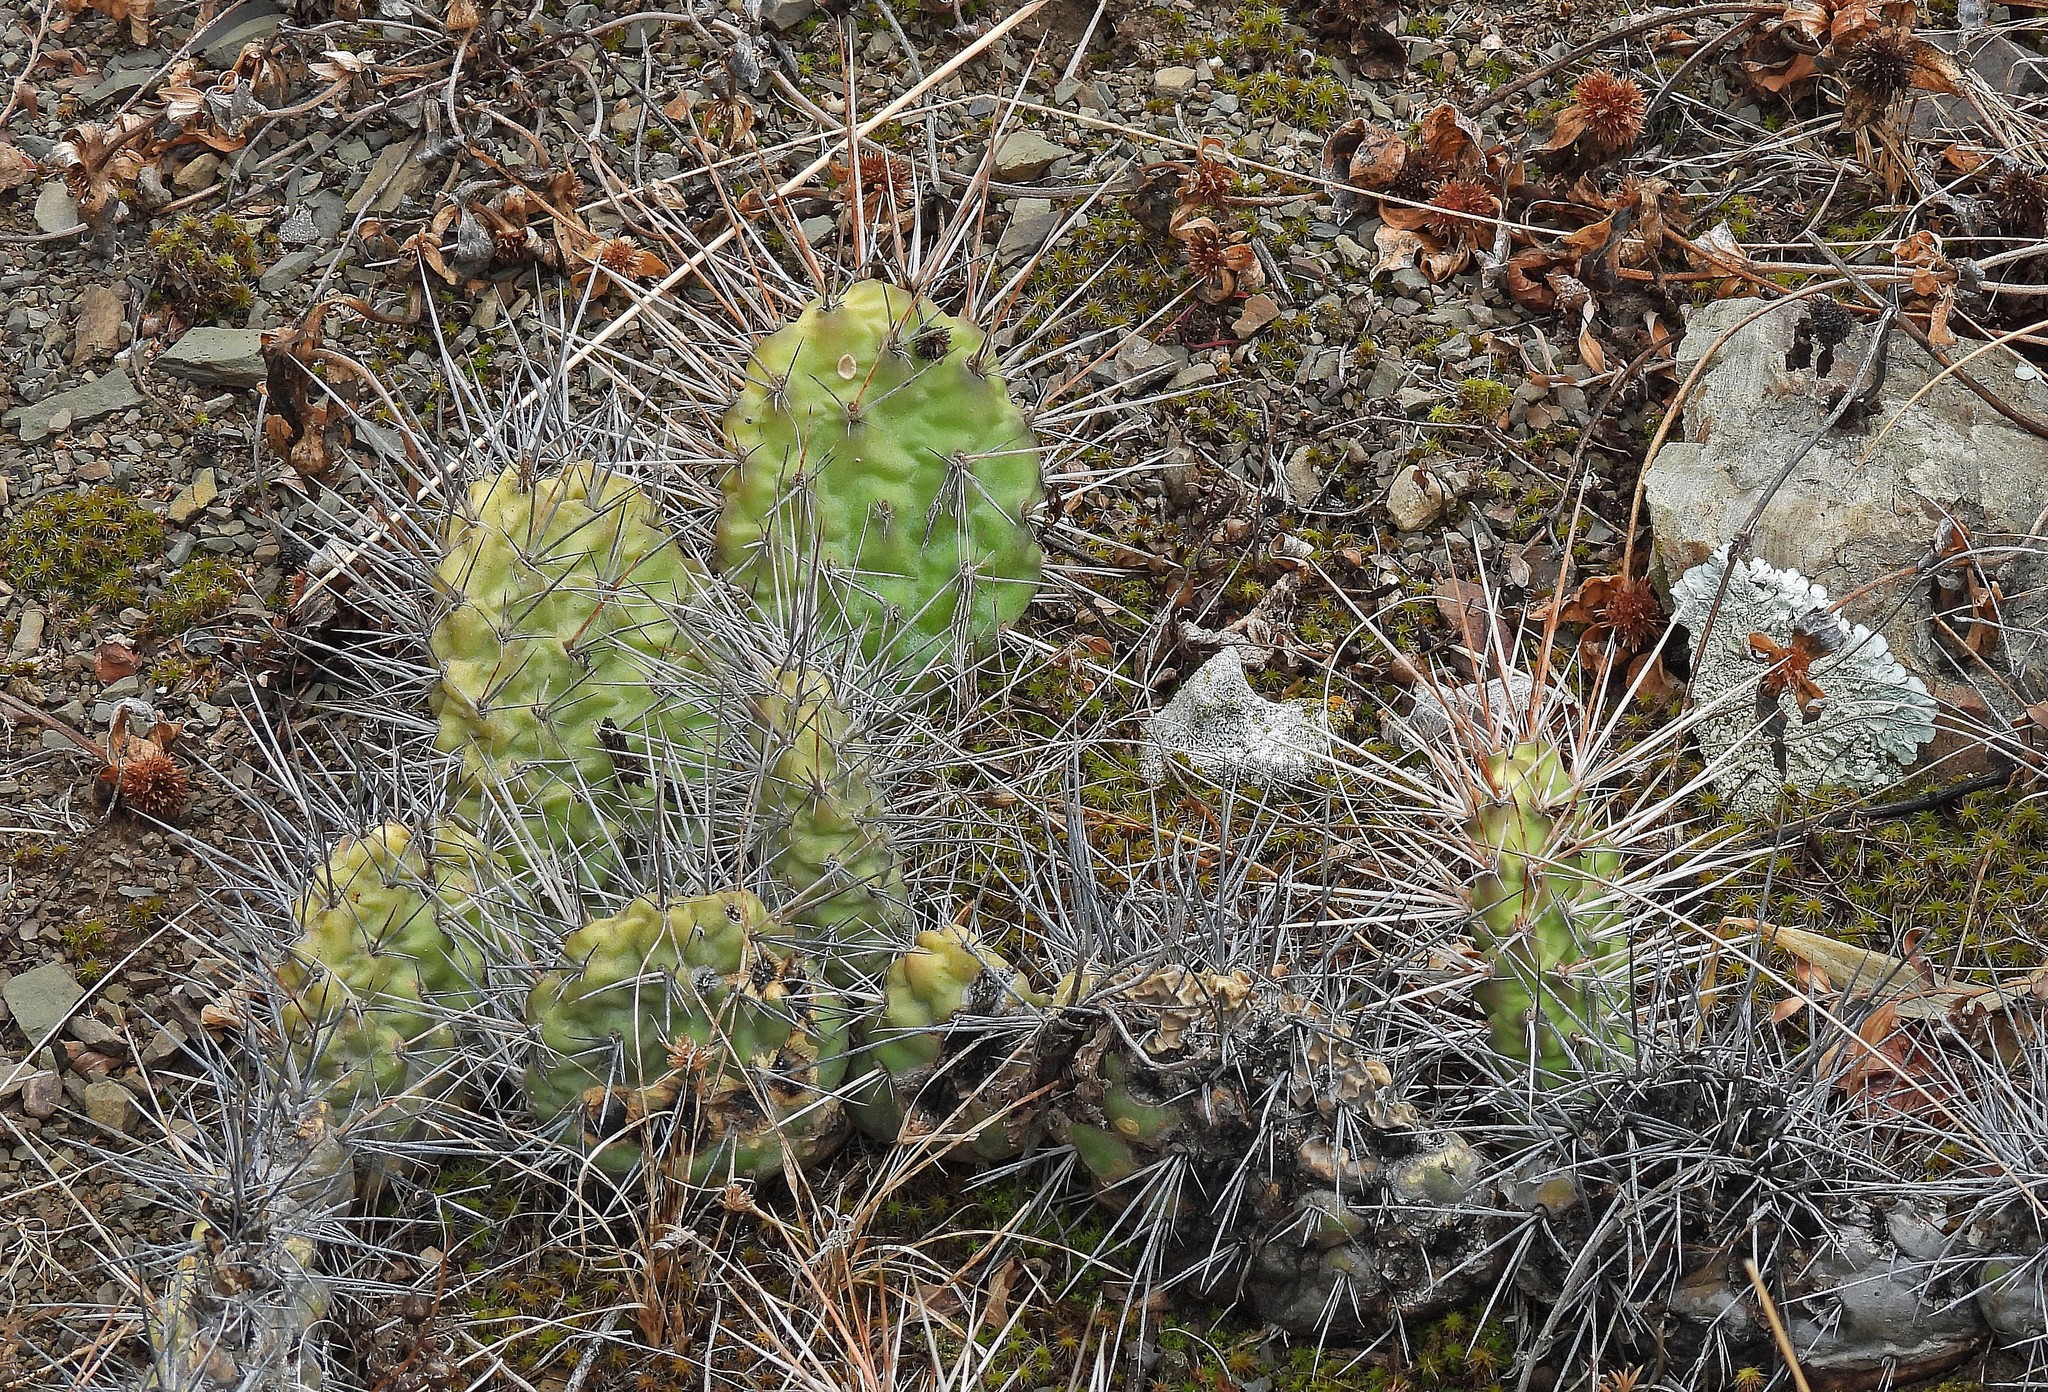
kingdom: Plantae
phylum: Tracheophyta
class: Magnoliopsida
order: Caryophyllales
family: Cactaceae
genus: Opuntia
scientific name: Opuntia sulphurea
